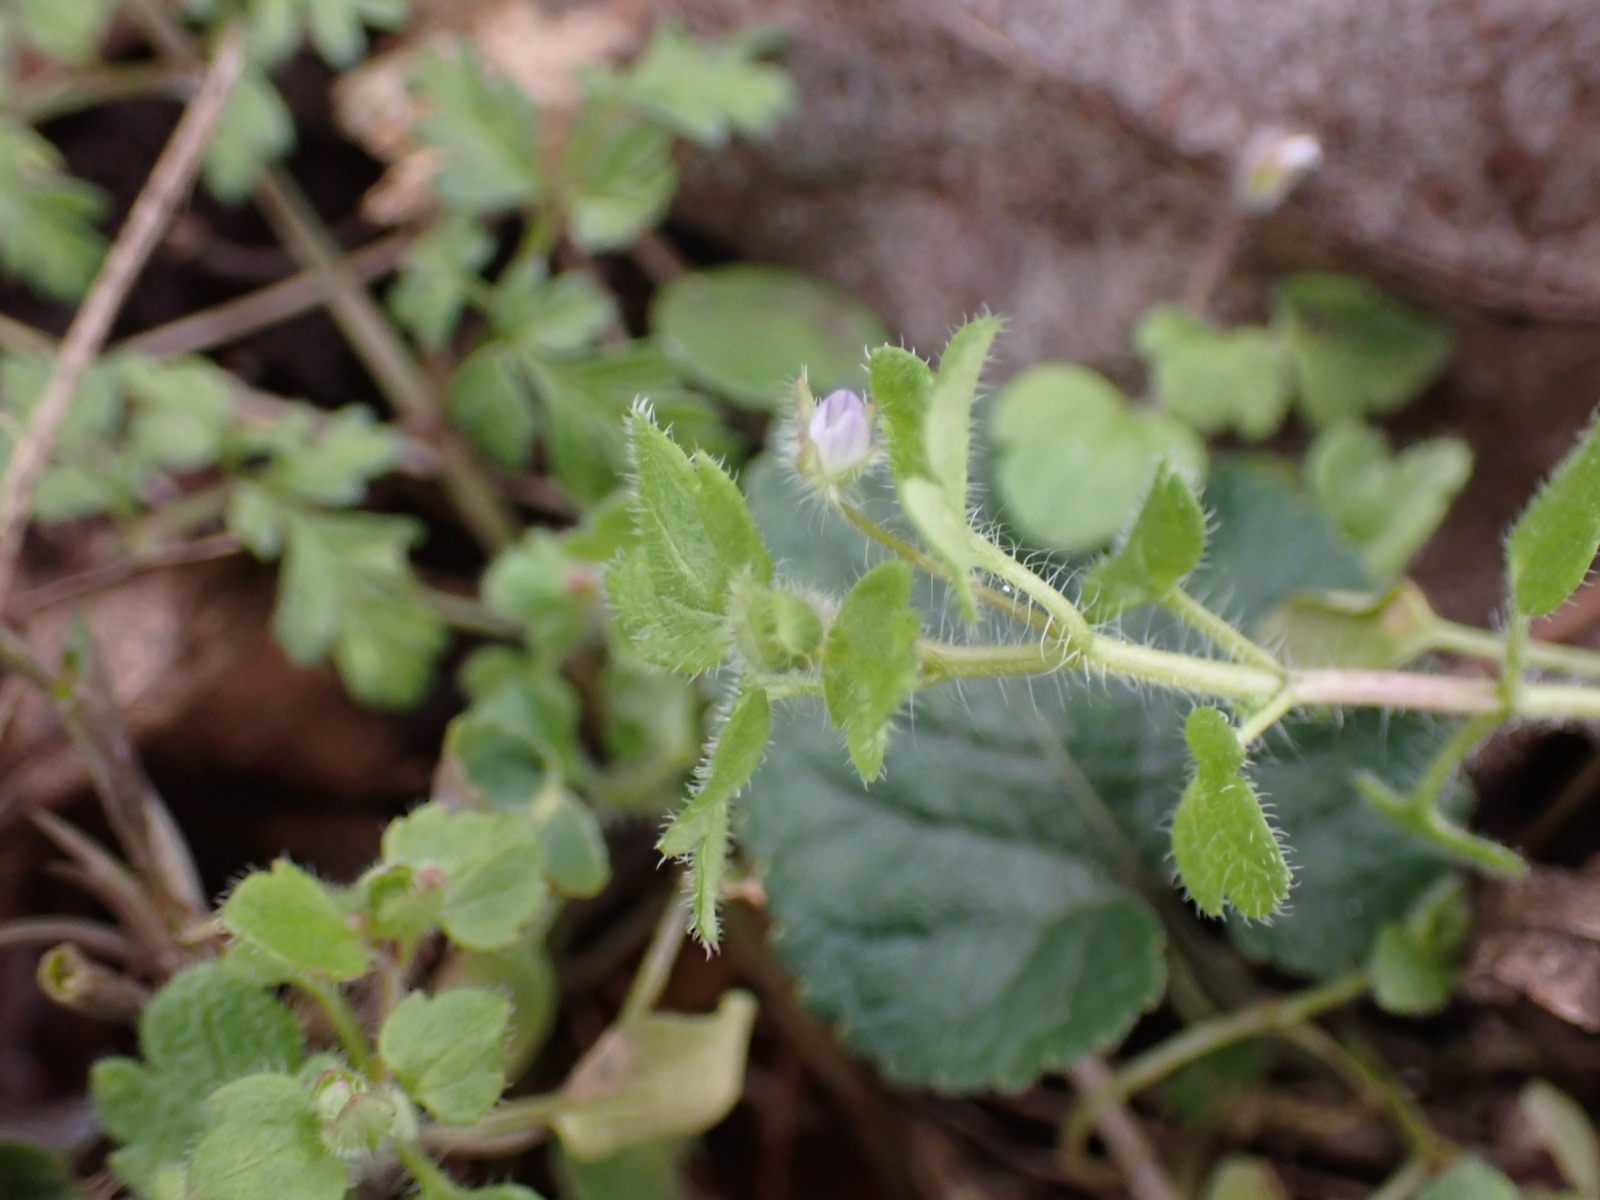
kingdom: Plantae
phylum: Tracheophyta
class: Magnoliopsida
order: Lamiales
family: Plantaginaceae
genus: Veronica
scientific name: Veronica sublobata
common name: False ivy-leaved speedwell
